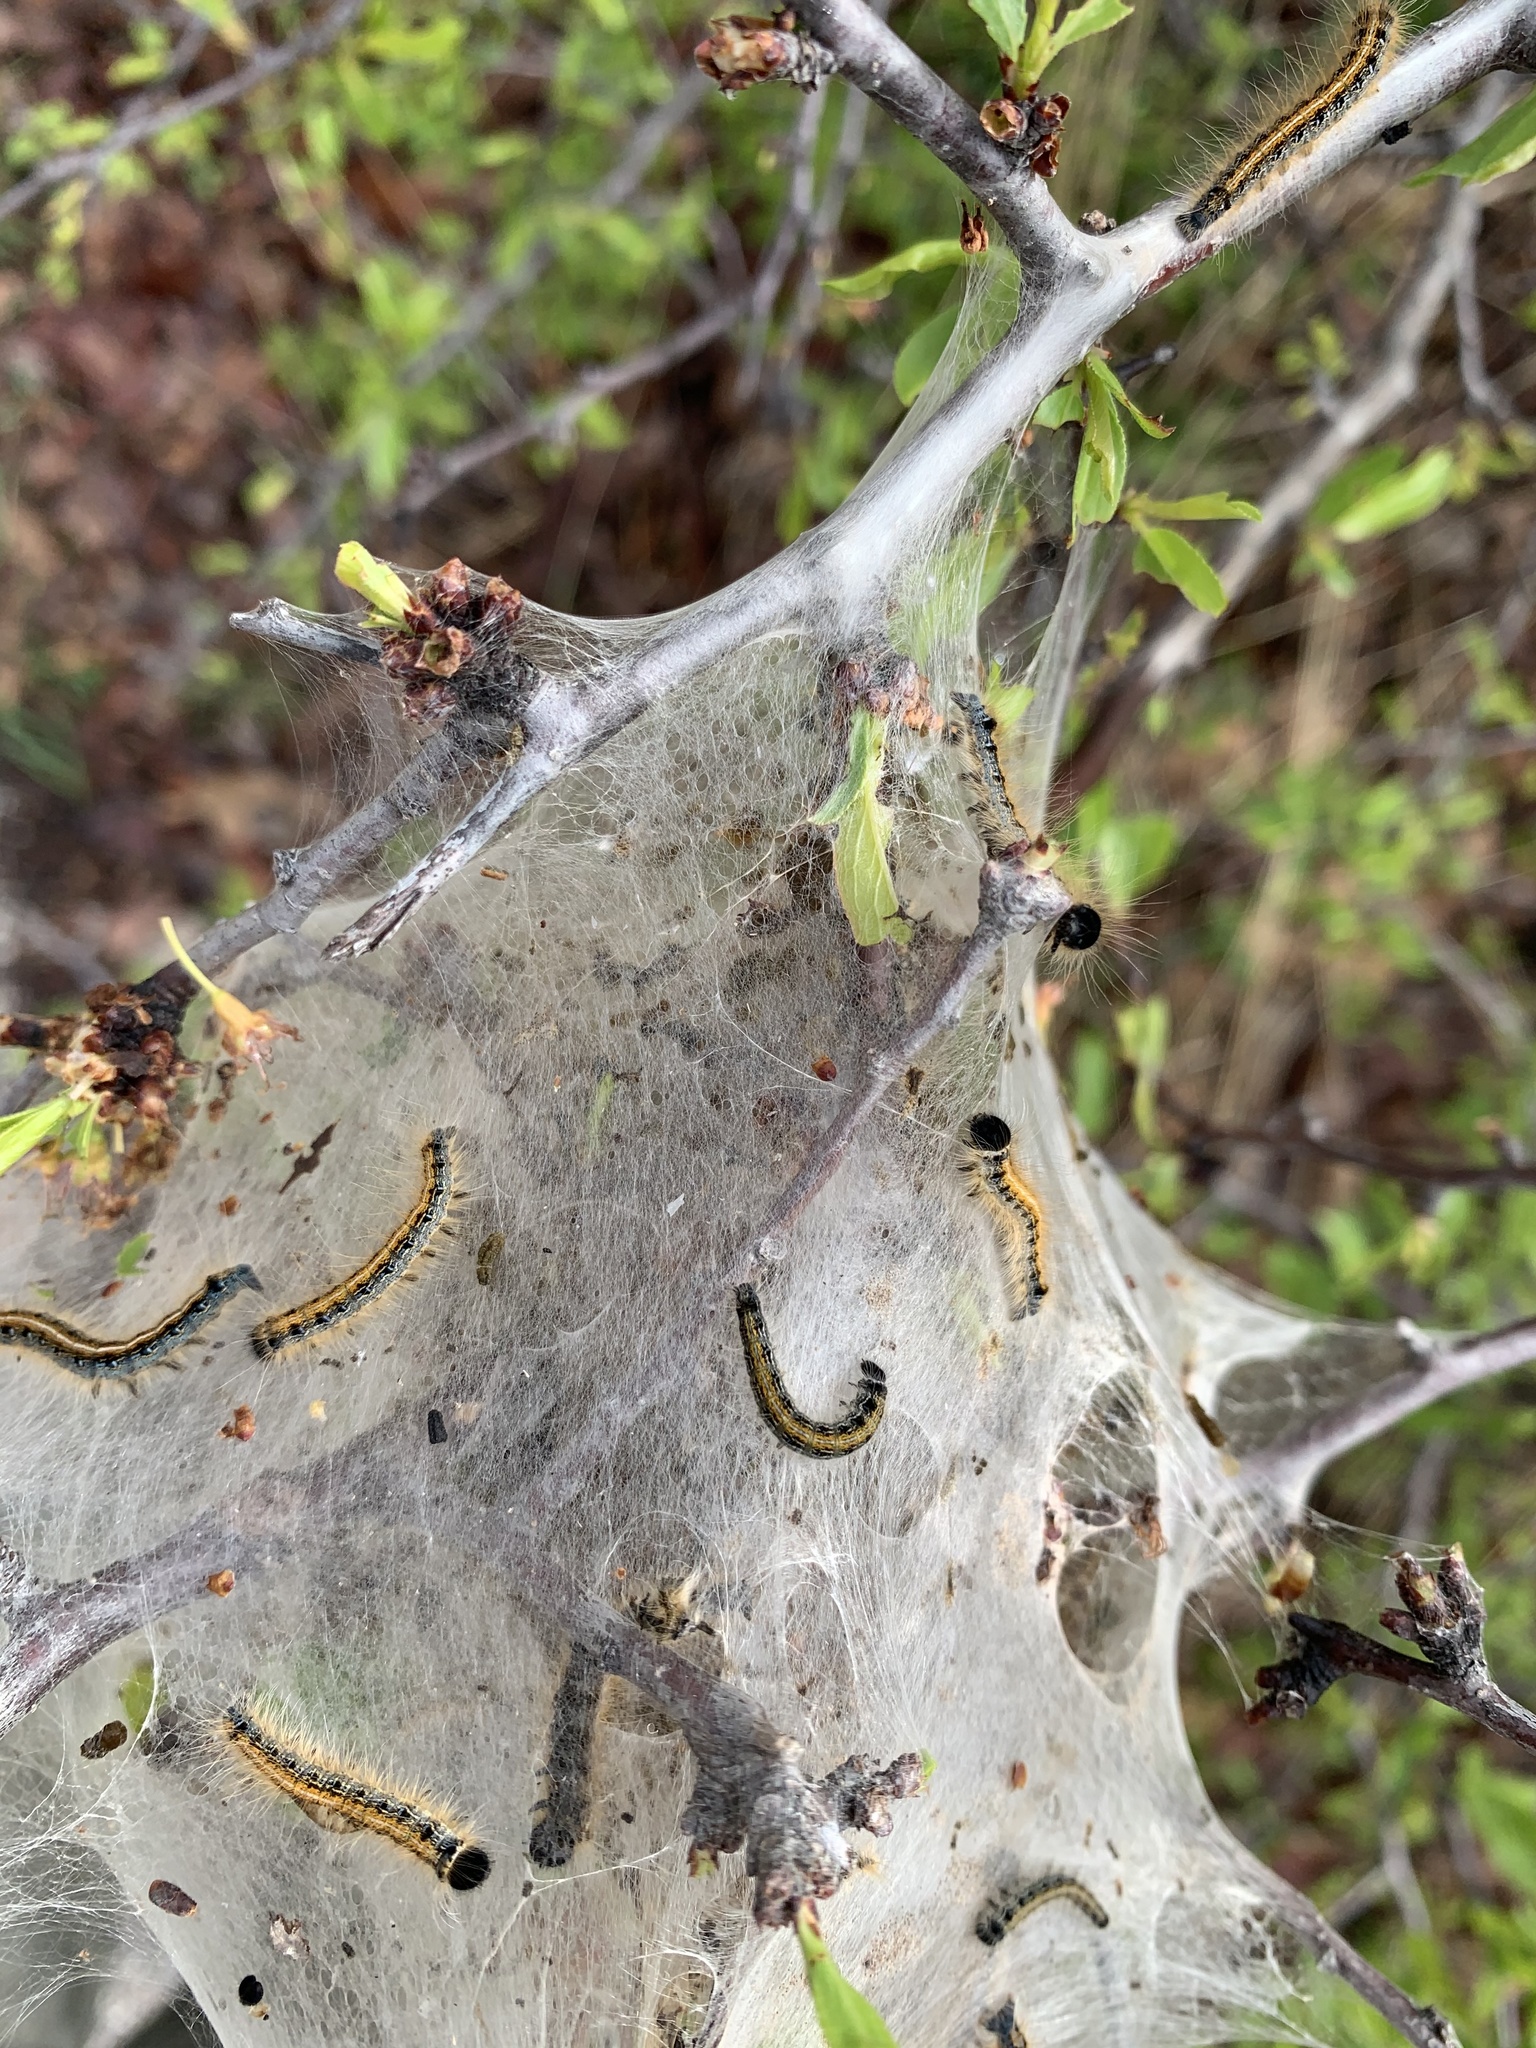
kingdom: Animalia
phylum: Arthropoda
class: Insecta
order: Lepidoptera
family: Lasiocampidae
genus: Malacosoma
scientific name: Malacosoma americana
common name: Eastern tent caterpillar moth
